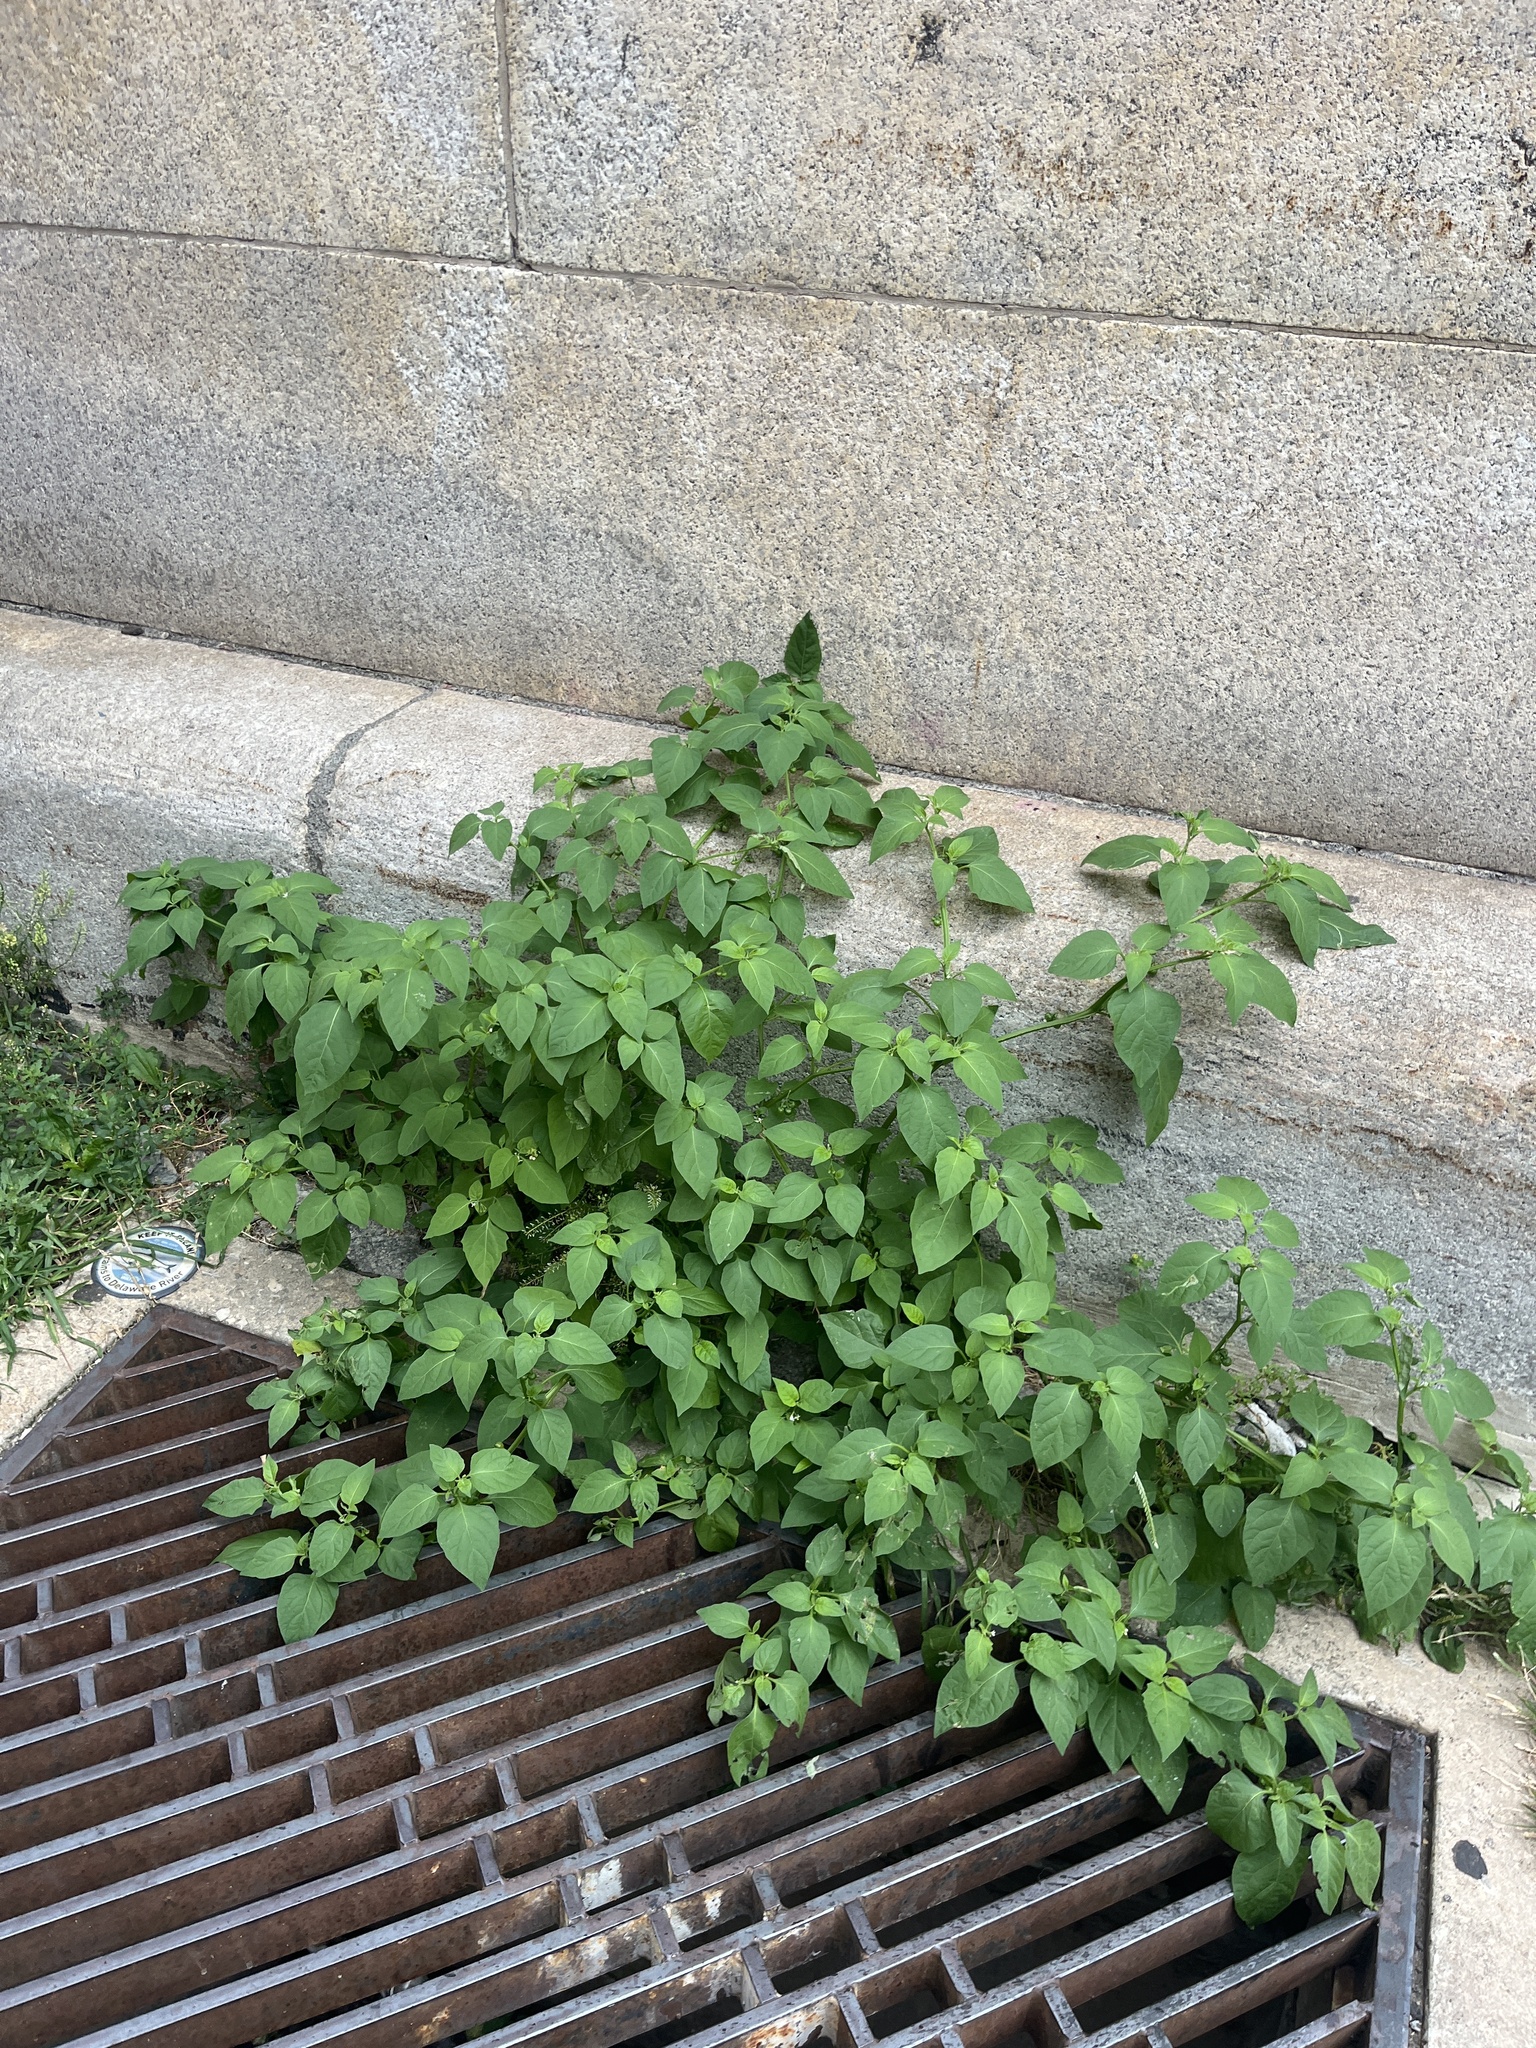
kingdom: Plantae
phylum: Tracheophyta
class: Magnoliopsida
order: Solanales
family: Solanaceae
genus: Solanum
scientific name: Solanum emulans
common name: Eastern black nightshade
